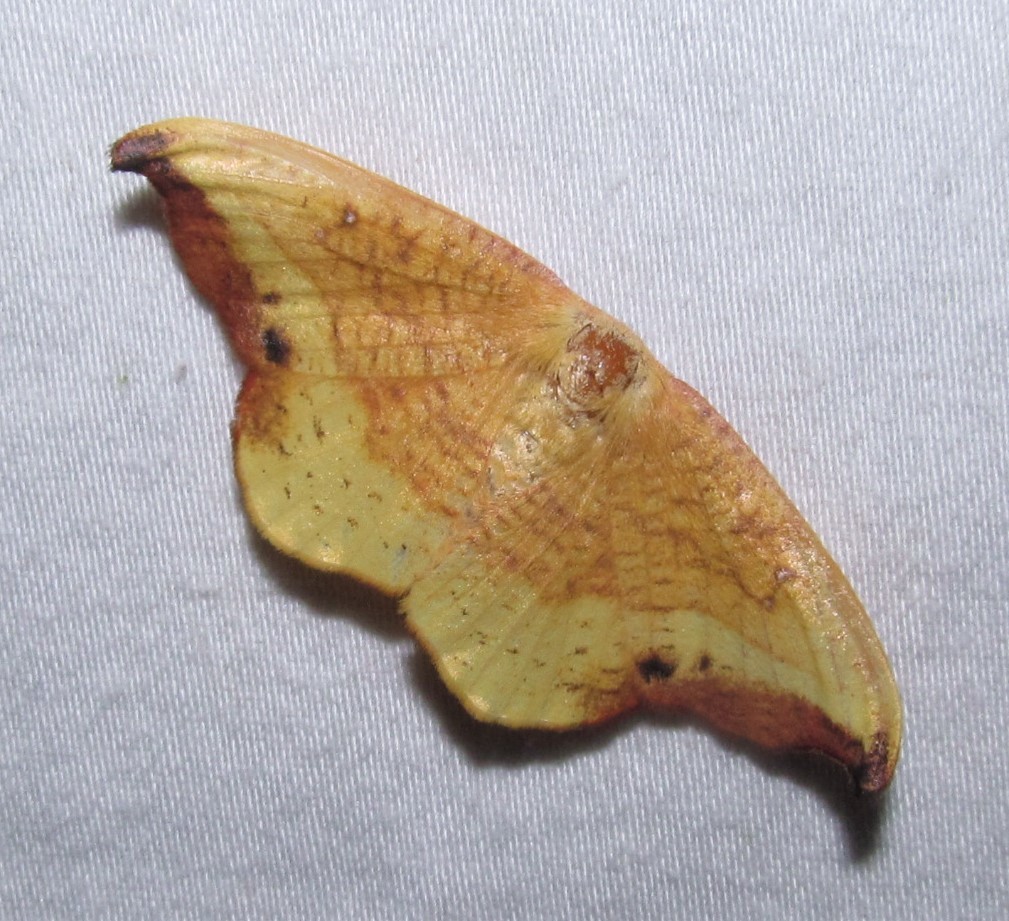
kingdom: Animalia
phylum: Arthropoda
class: Insecta
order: Lepidoptera
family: Drepanidae
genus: Oreta
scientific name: Oreta rosea
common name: Rose hooktip
